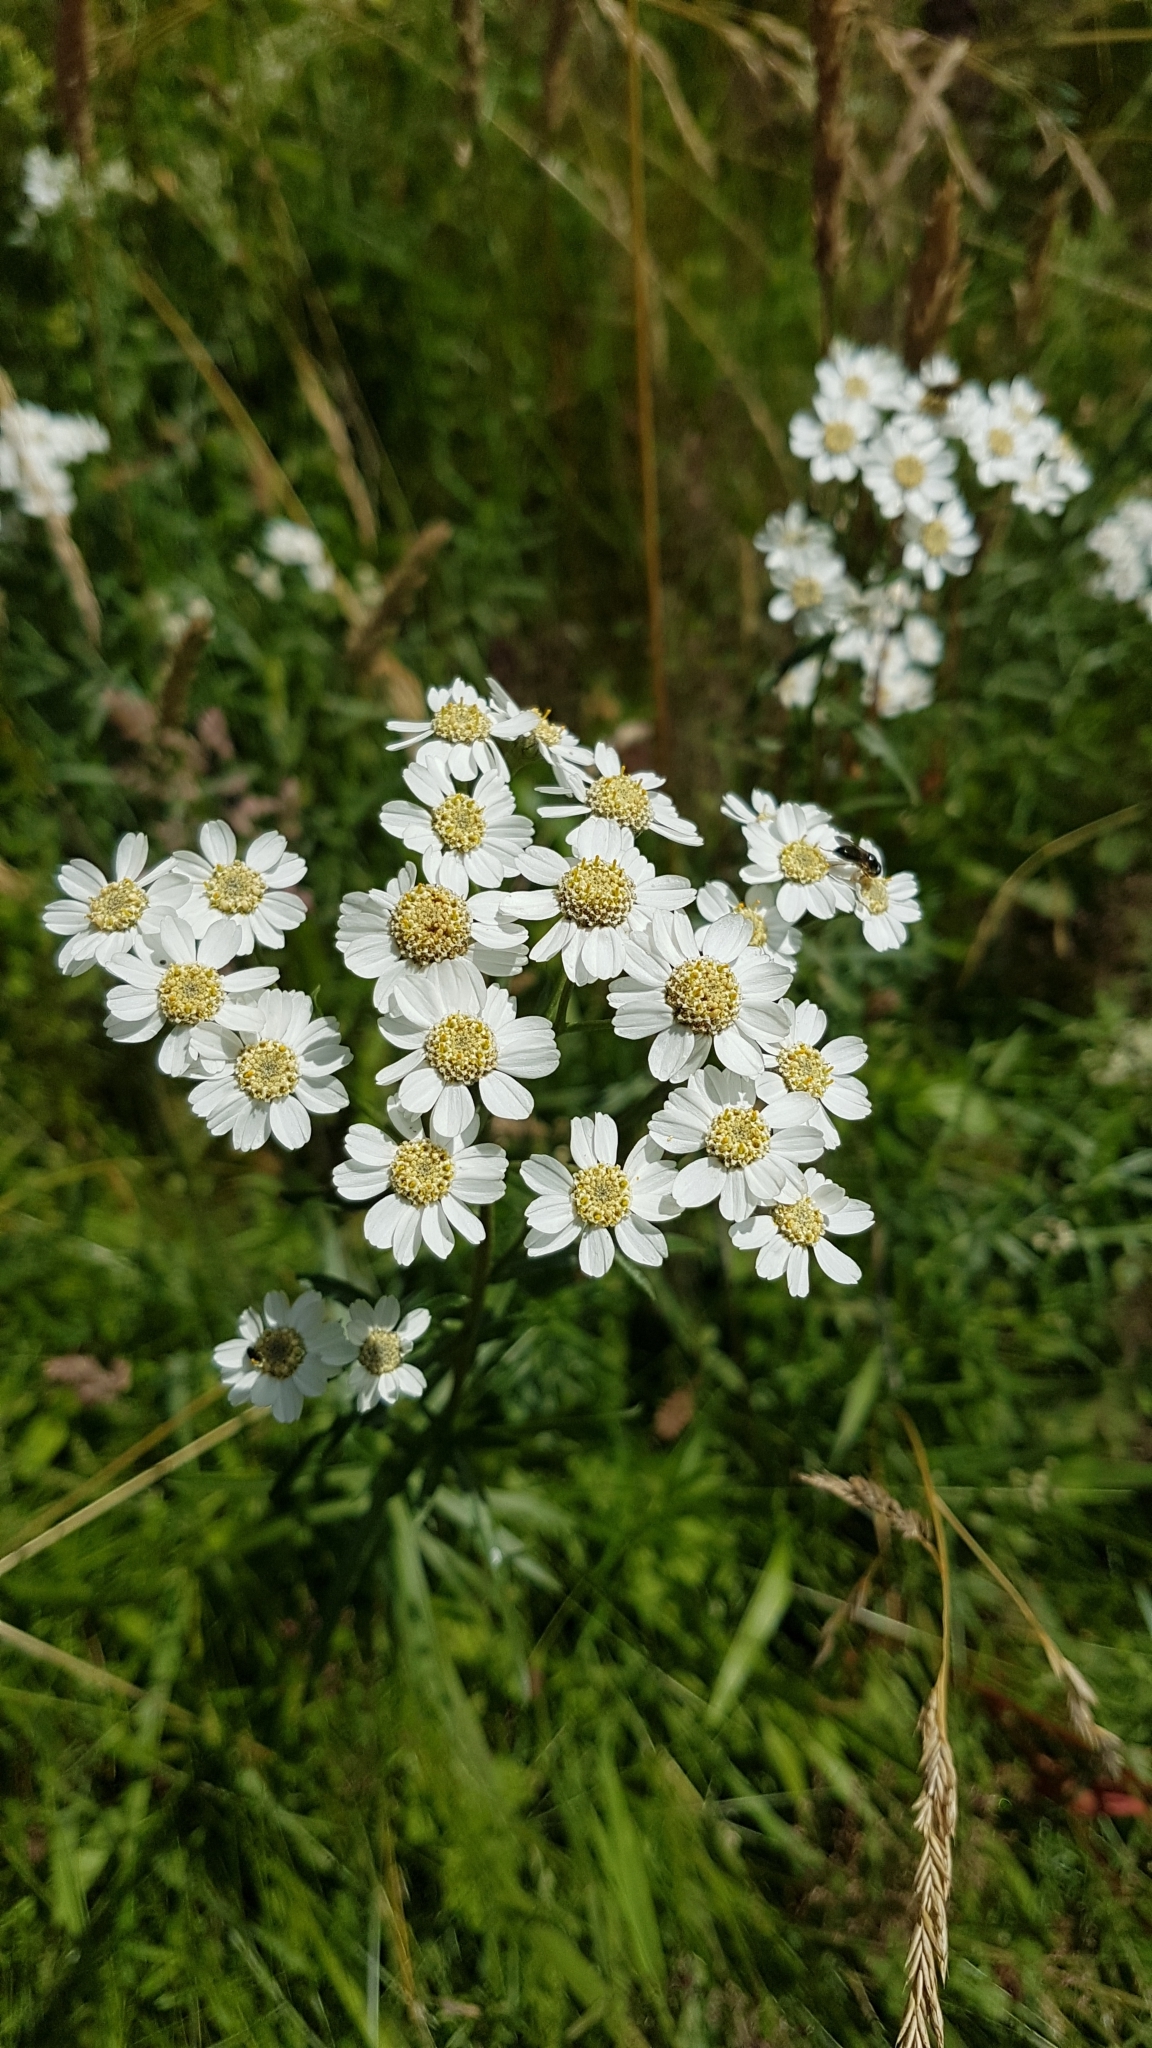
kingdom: Plantae
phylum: Tracheophyta
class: Magnoliopsida
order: Asterales
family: Asteraceae
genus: Achillea
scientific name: Achillea ptarmica
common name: Sneezeweed
